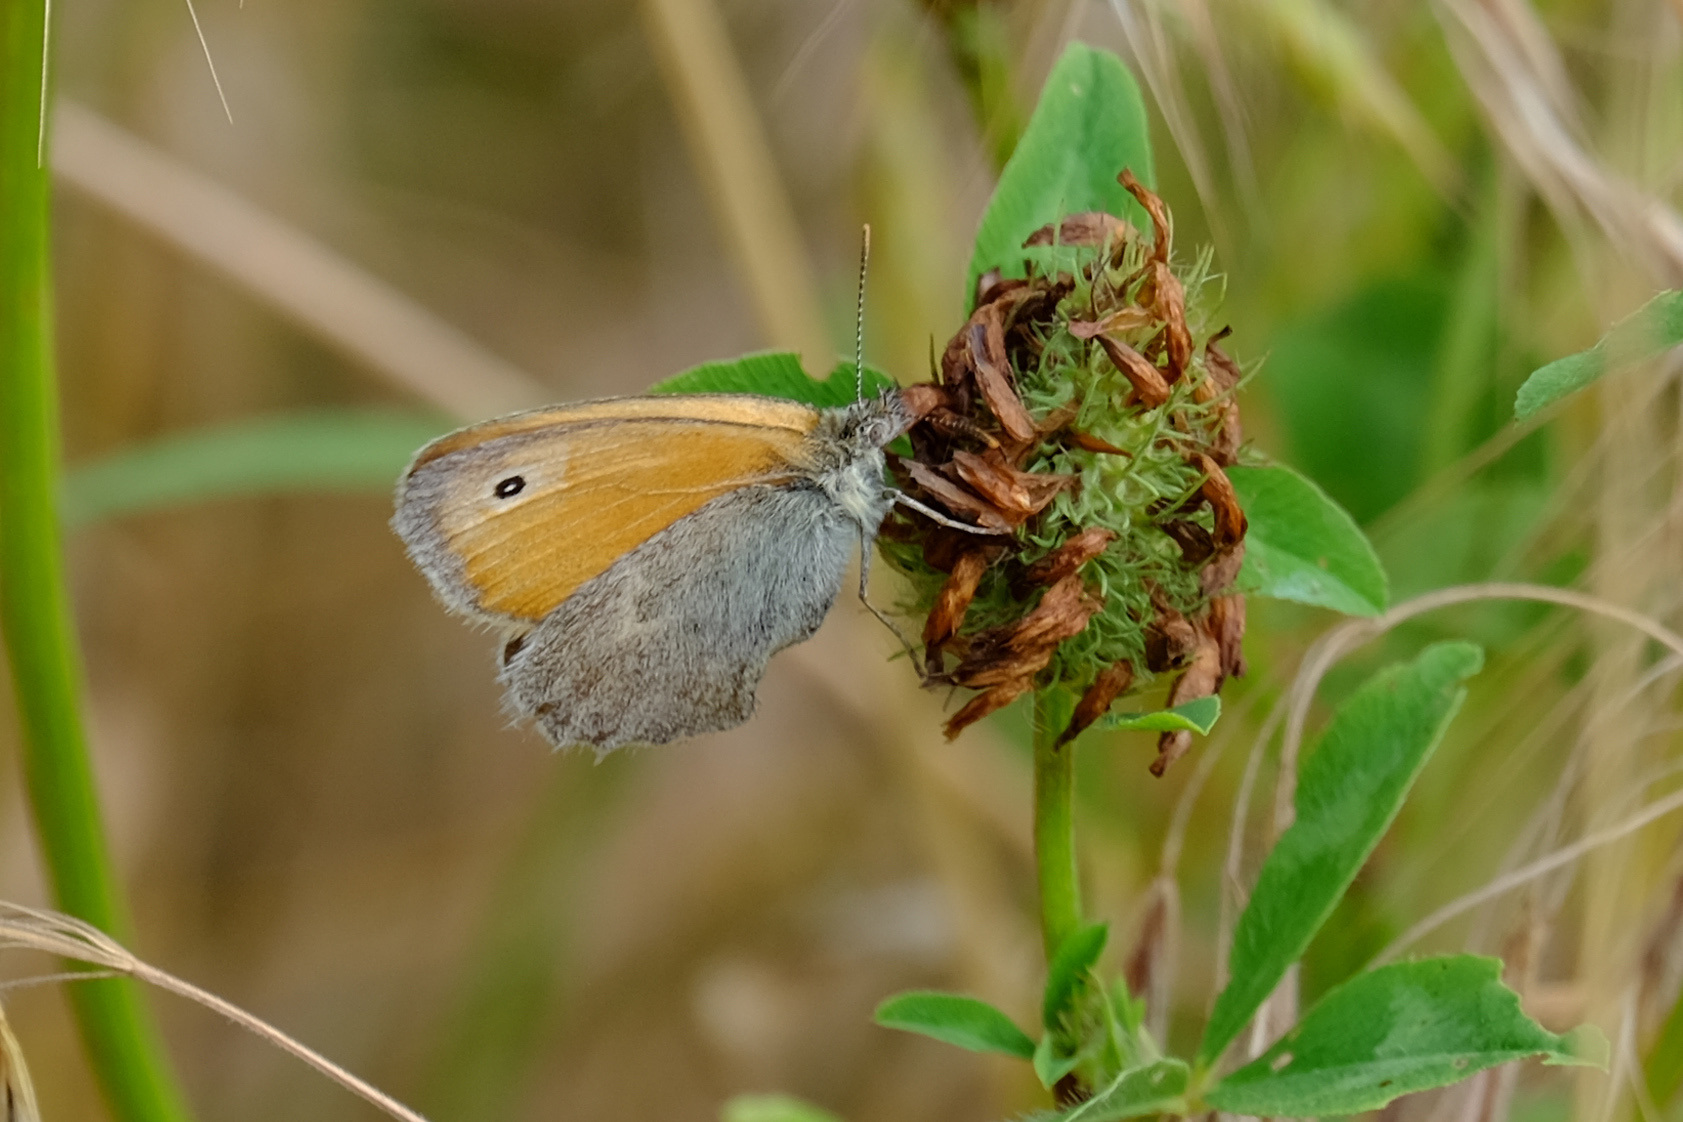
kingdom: Animalia
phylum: Arthropoda
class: Insecta
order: Lepidoptera
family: Nymphalidae
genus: Coenonympha
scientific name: Coenonympha pamphilus
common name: Small heath
